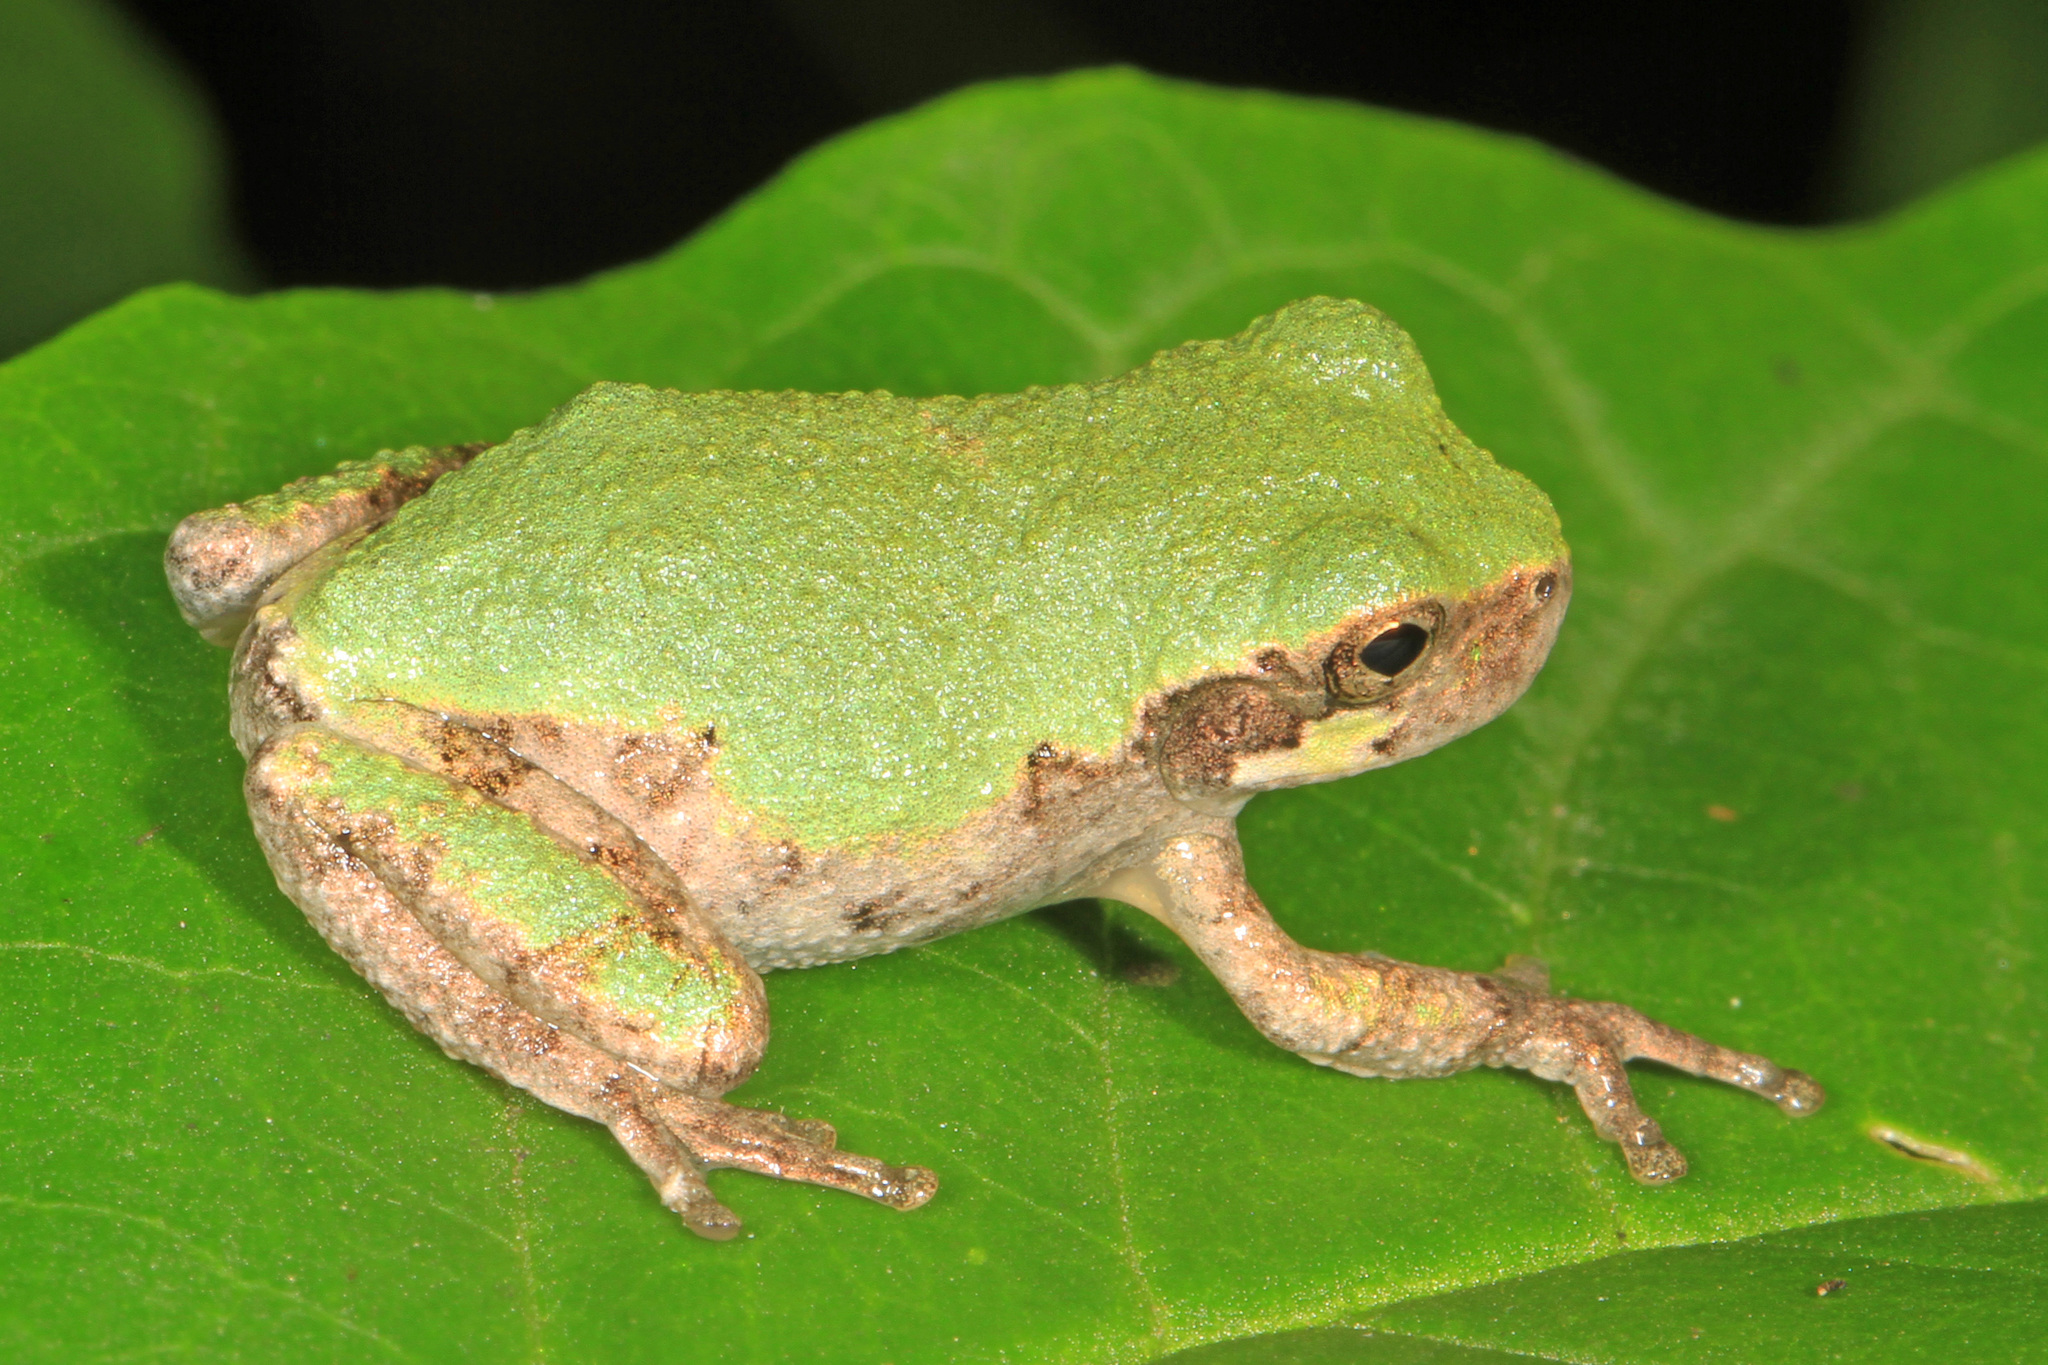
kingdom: Animalia
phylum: Chordata
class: Amphibia
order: Anura
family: Hylidae
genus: Dryophytes
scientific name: Dryophytes chrysoscelis
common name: Cope's gray treefrog
